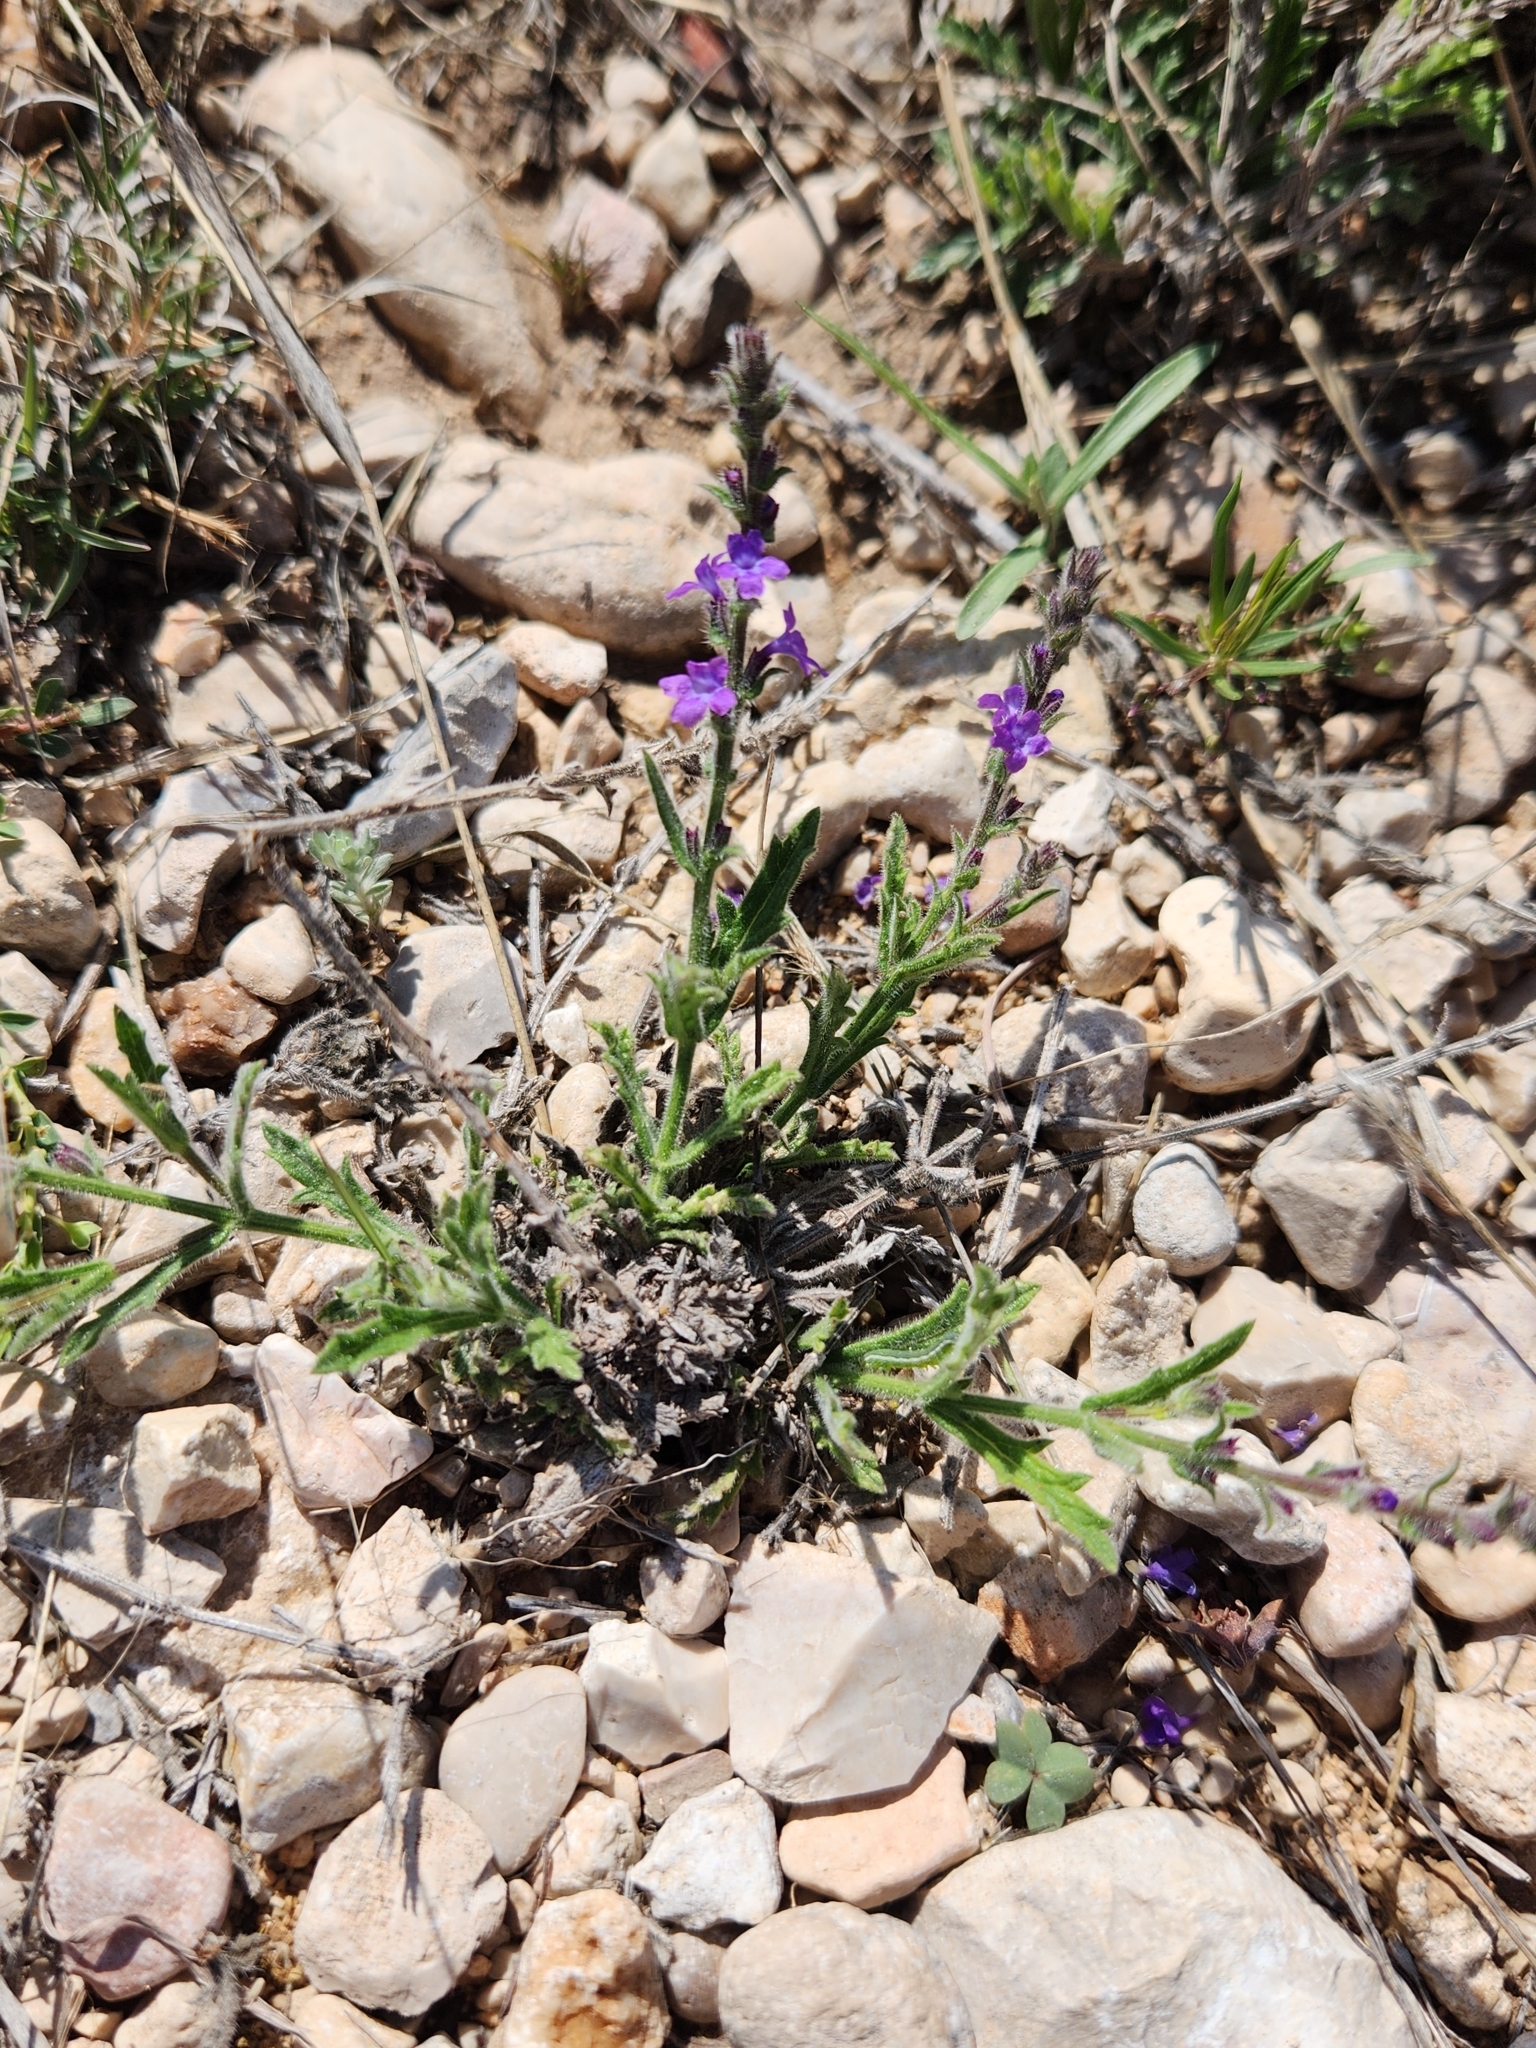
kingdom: Plantae
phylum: Tracheophyta
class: Magnoliopsida
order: Lamiales
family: Verbenaceae
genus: Verbena
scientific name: Verbena canescens
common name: Gray vervain
